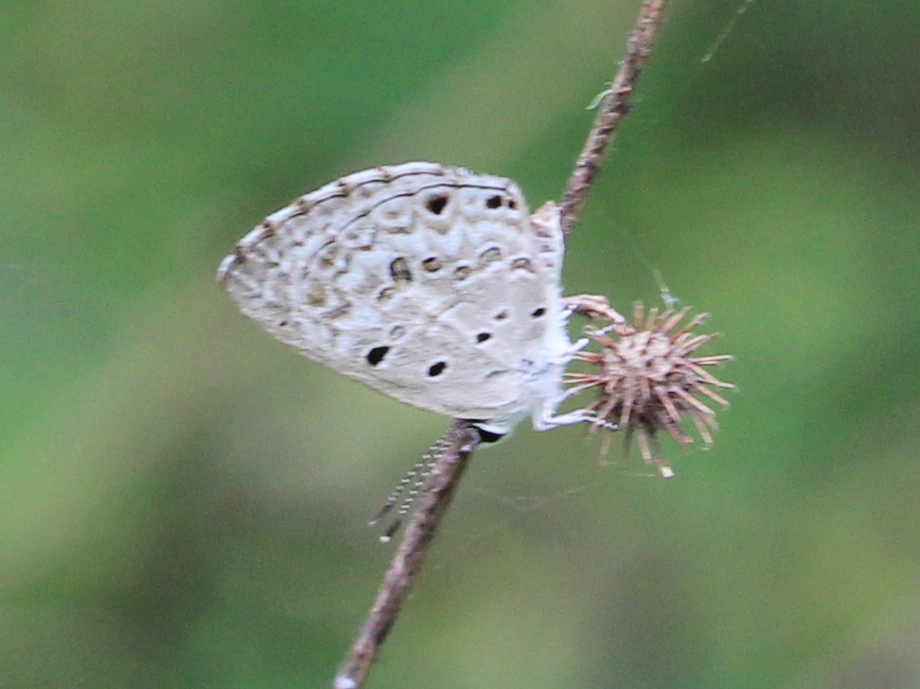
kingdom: Animalia
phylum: Arthropoda
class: Insecta
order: Lepidoptera
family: Lycaenidae
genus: Chilades
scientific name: Chilades laius
